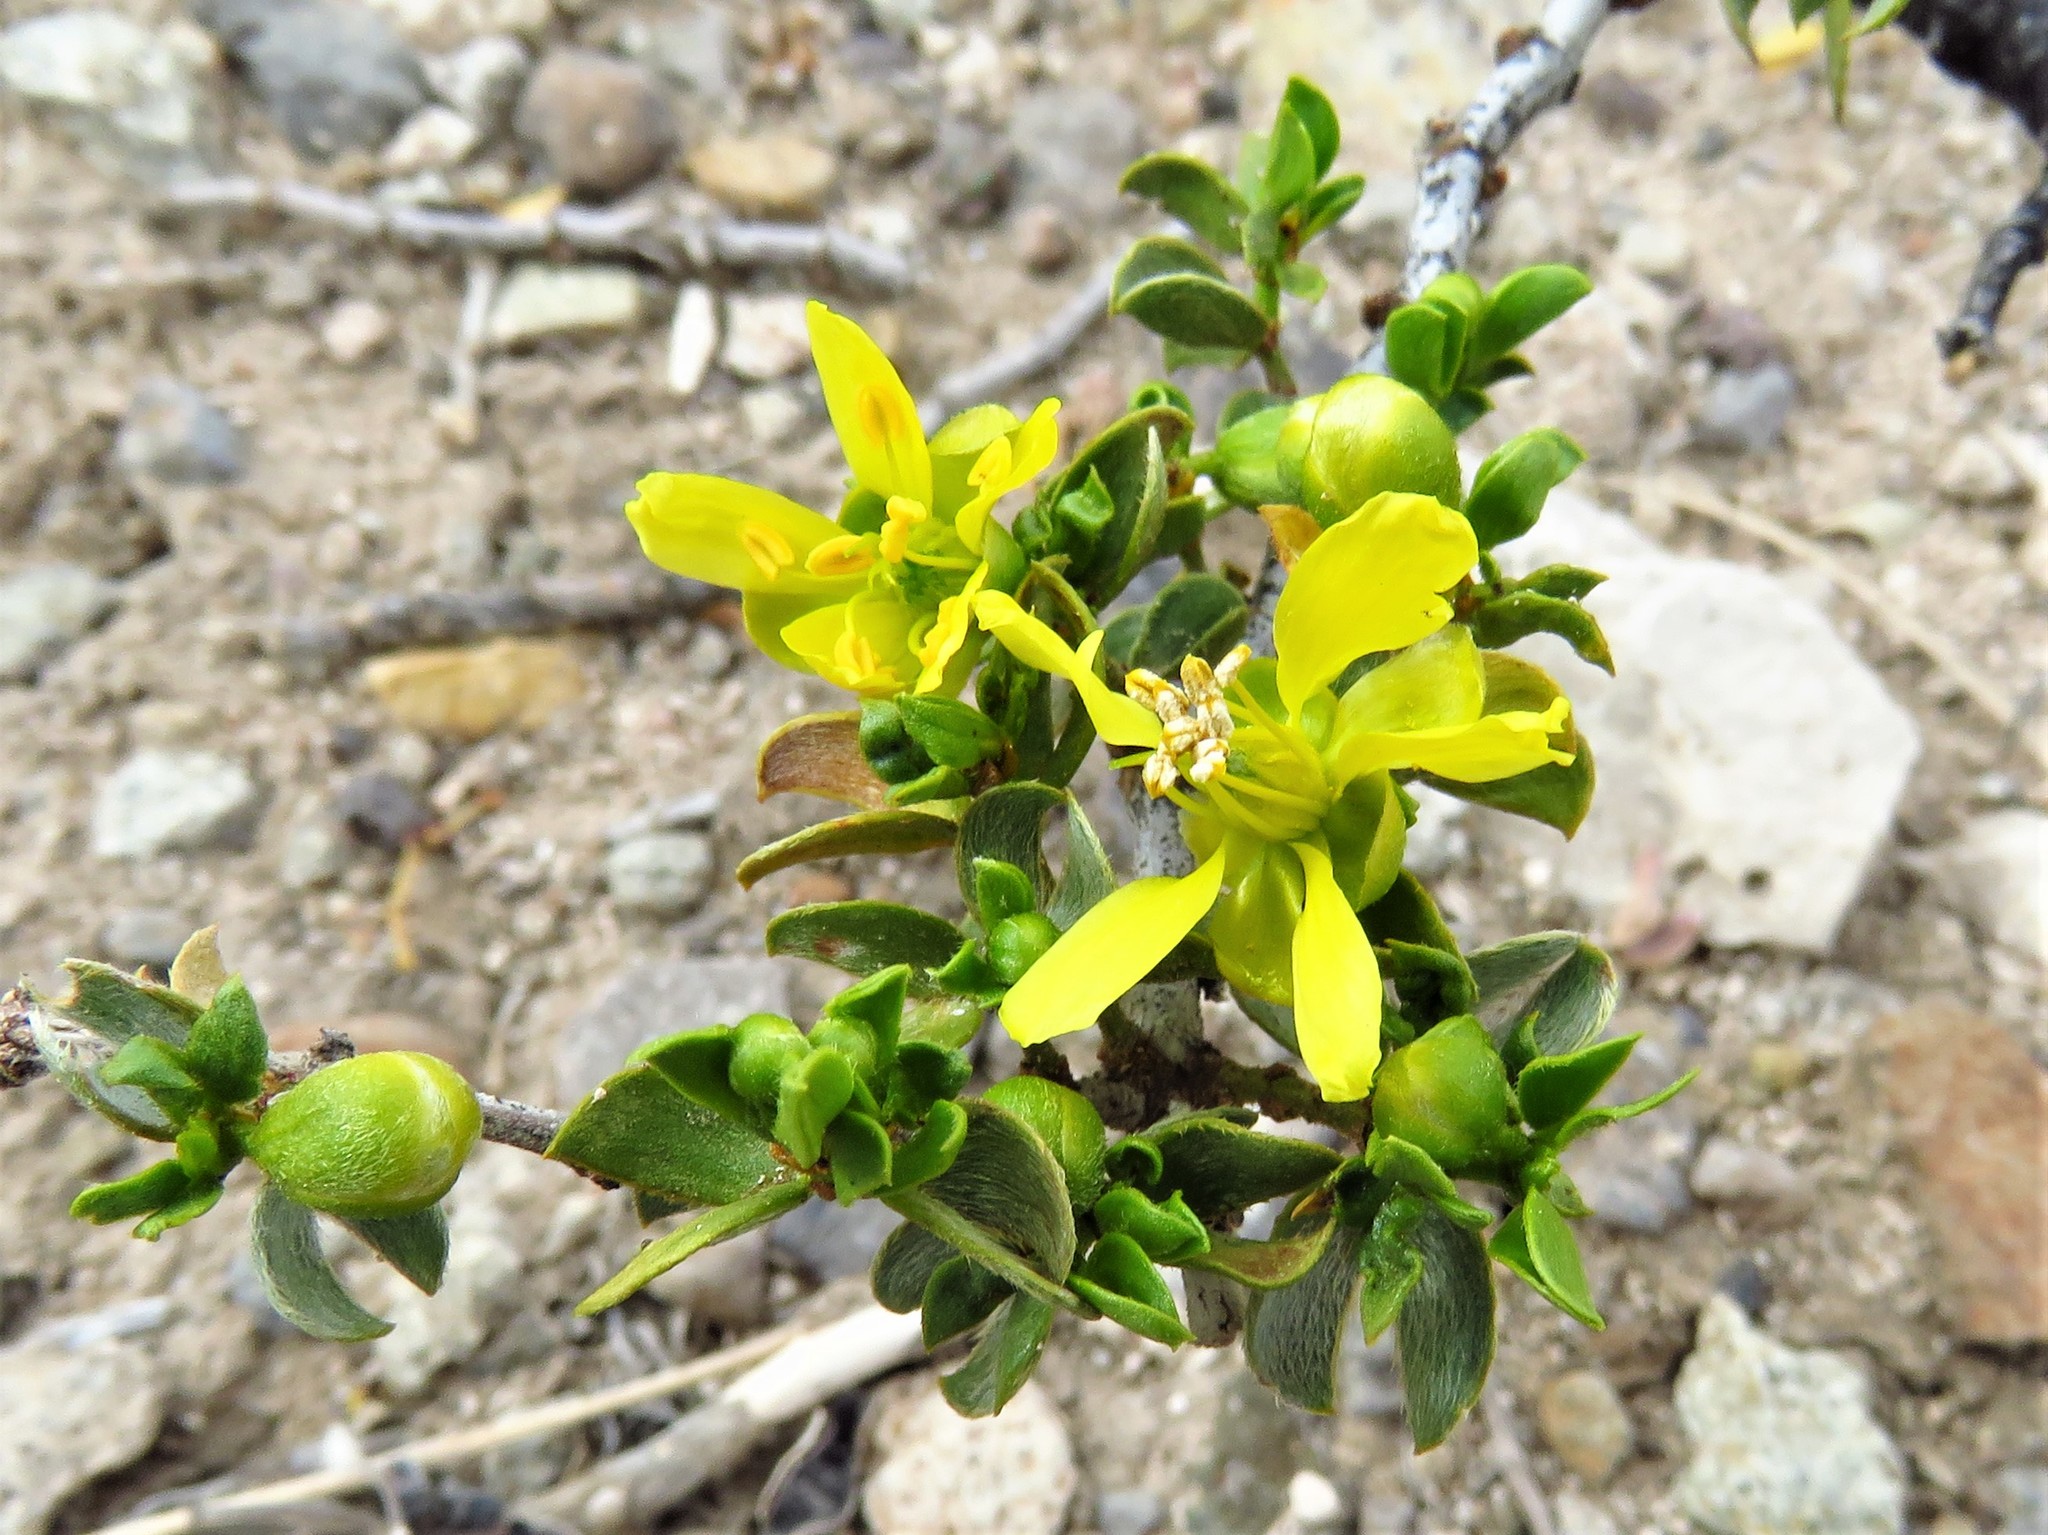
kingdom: Plantae
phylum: Tracheophyta
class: Magnoliopsida
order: Zygophyllales
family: Zygophyllaceae
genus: Larrea
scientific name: Larrea tridentata
